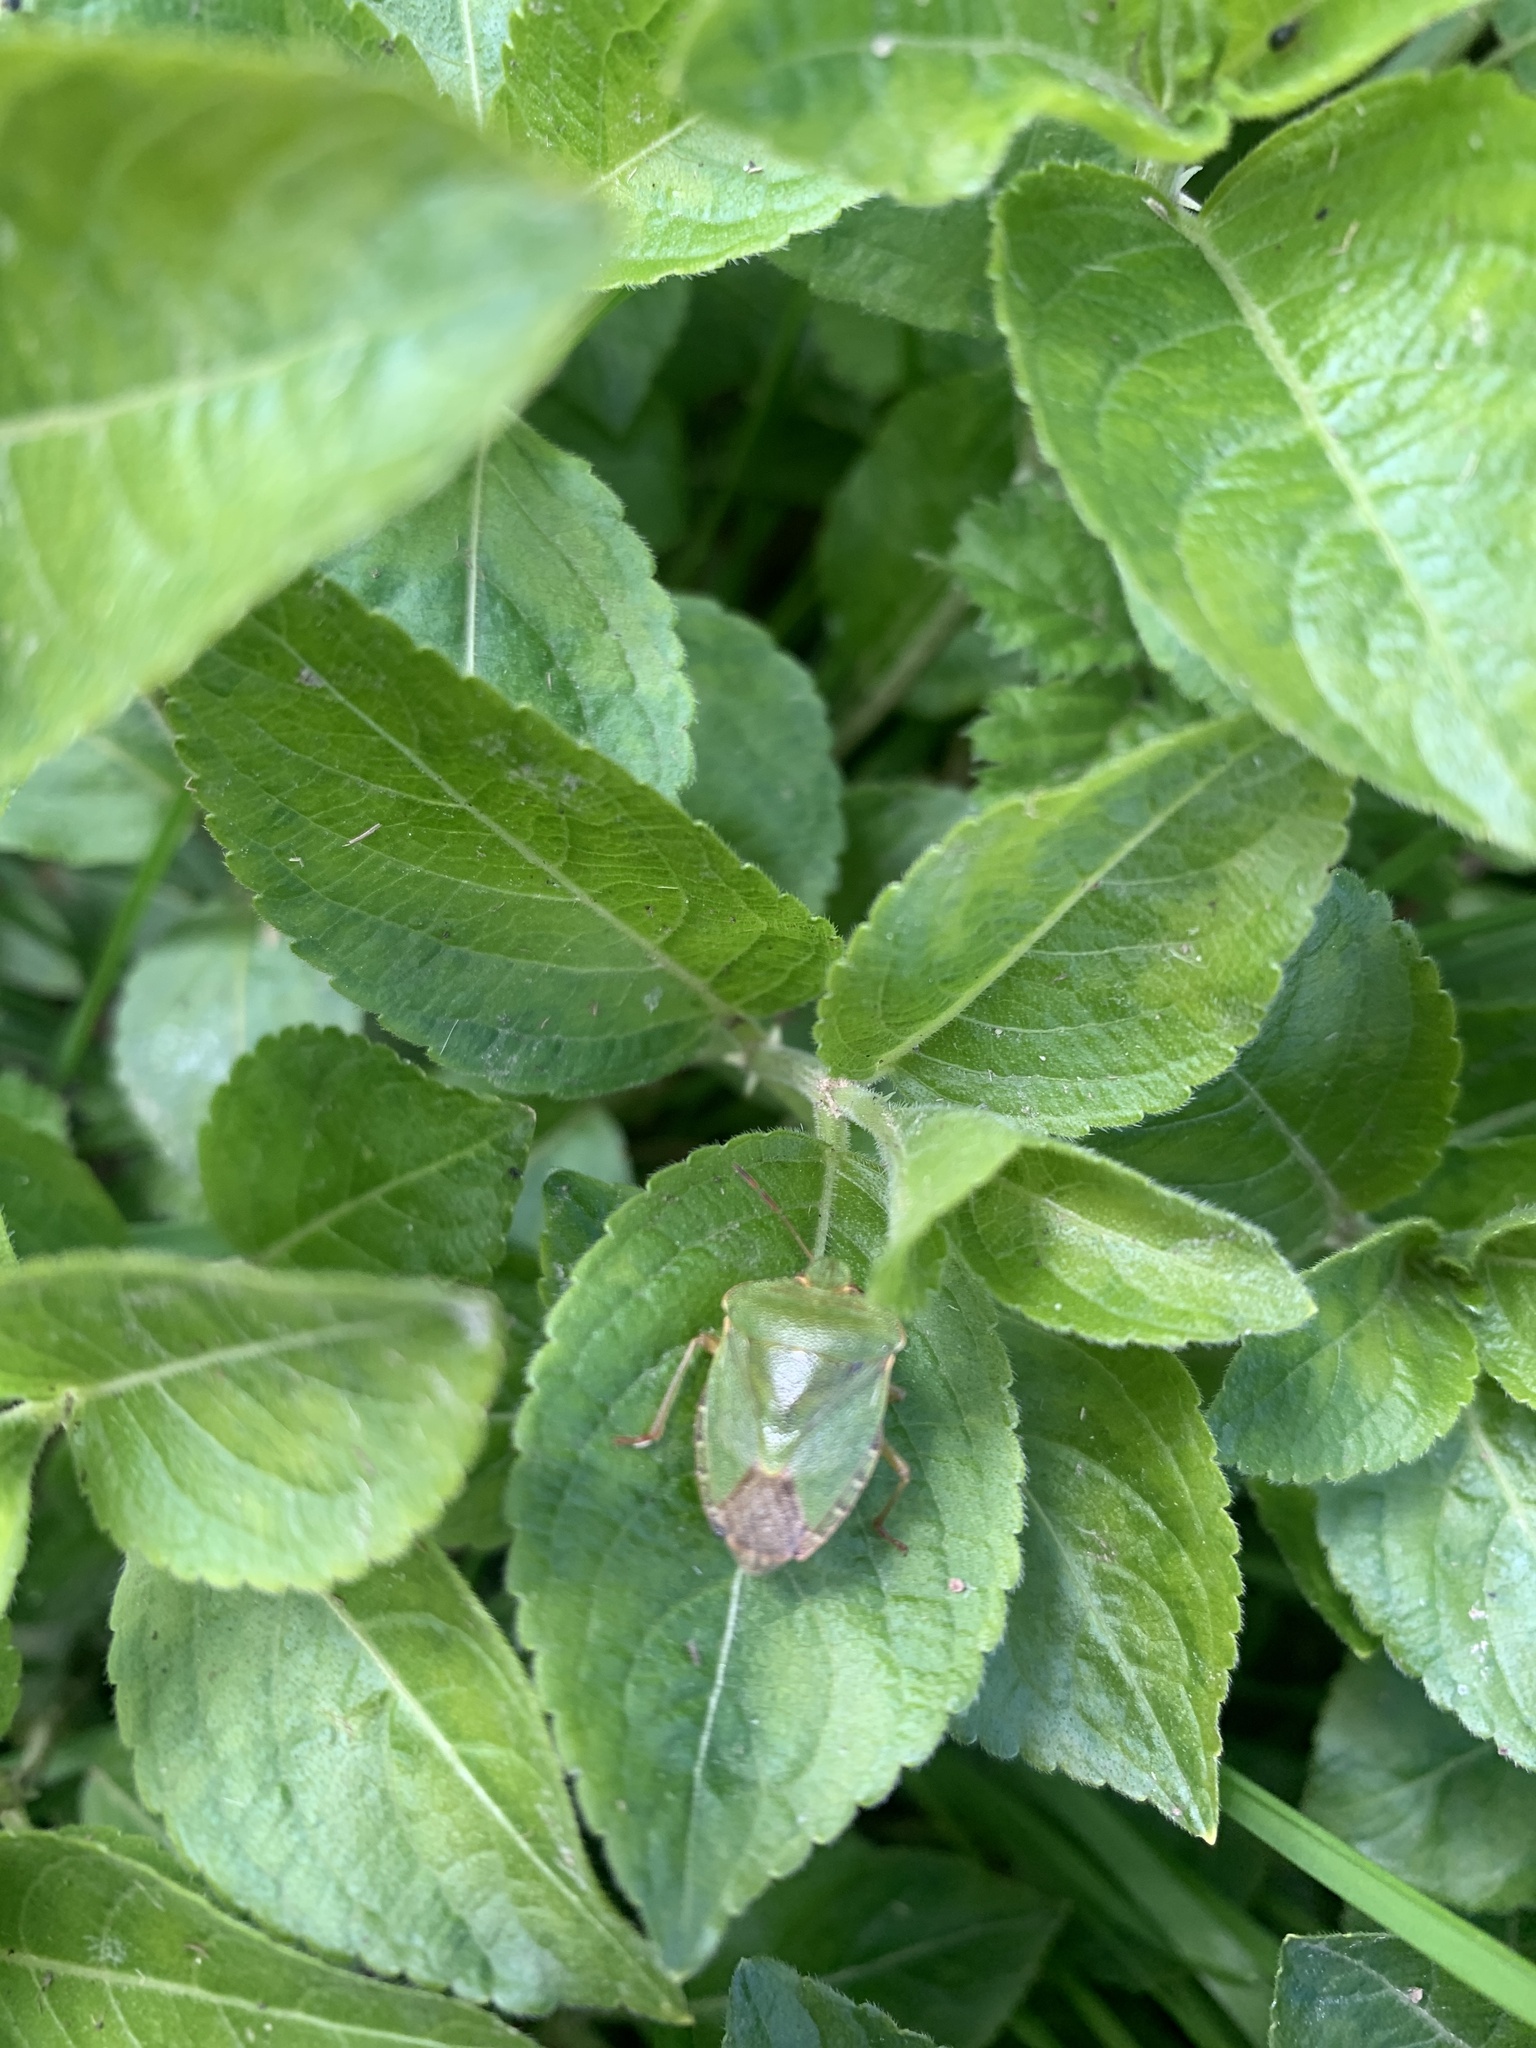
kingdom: Animalia
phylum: Arthropoda
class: Insecta
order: Hemiptera
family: Pentatomidae
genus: Palomena
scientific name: Palomena prasina
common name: Green shieldbug
